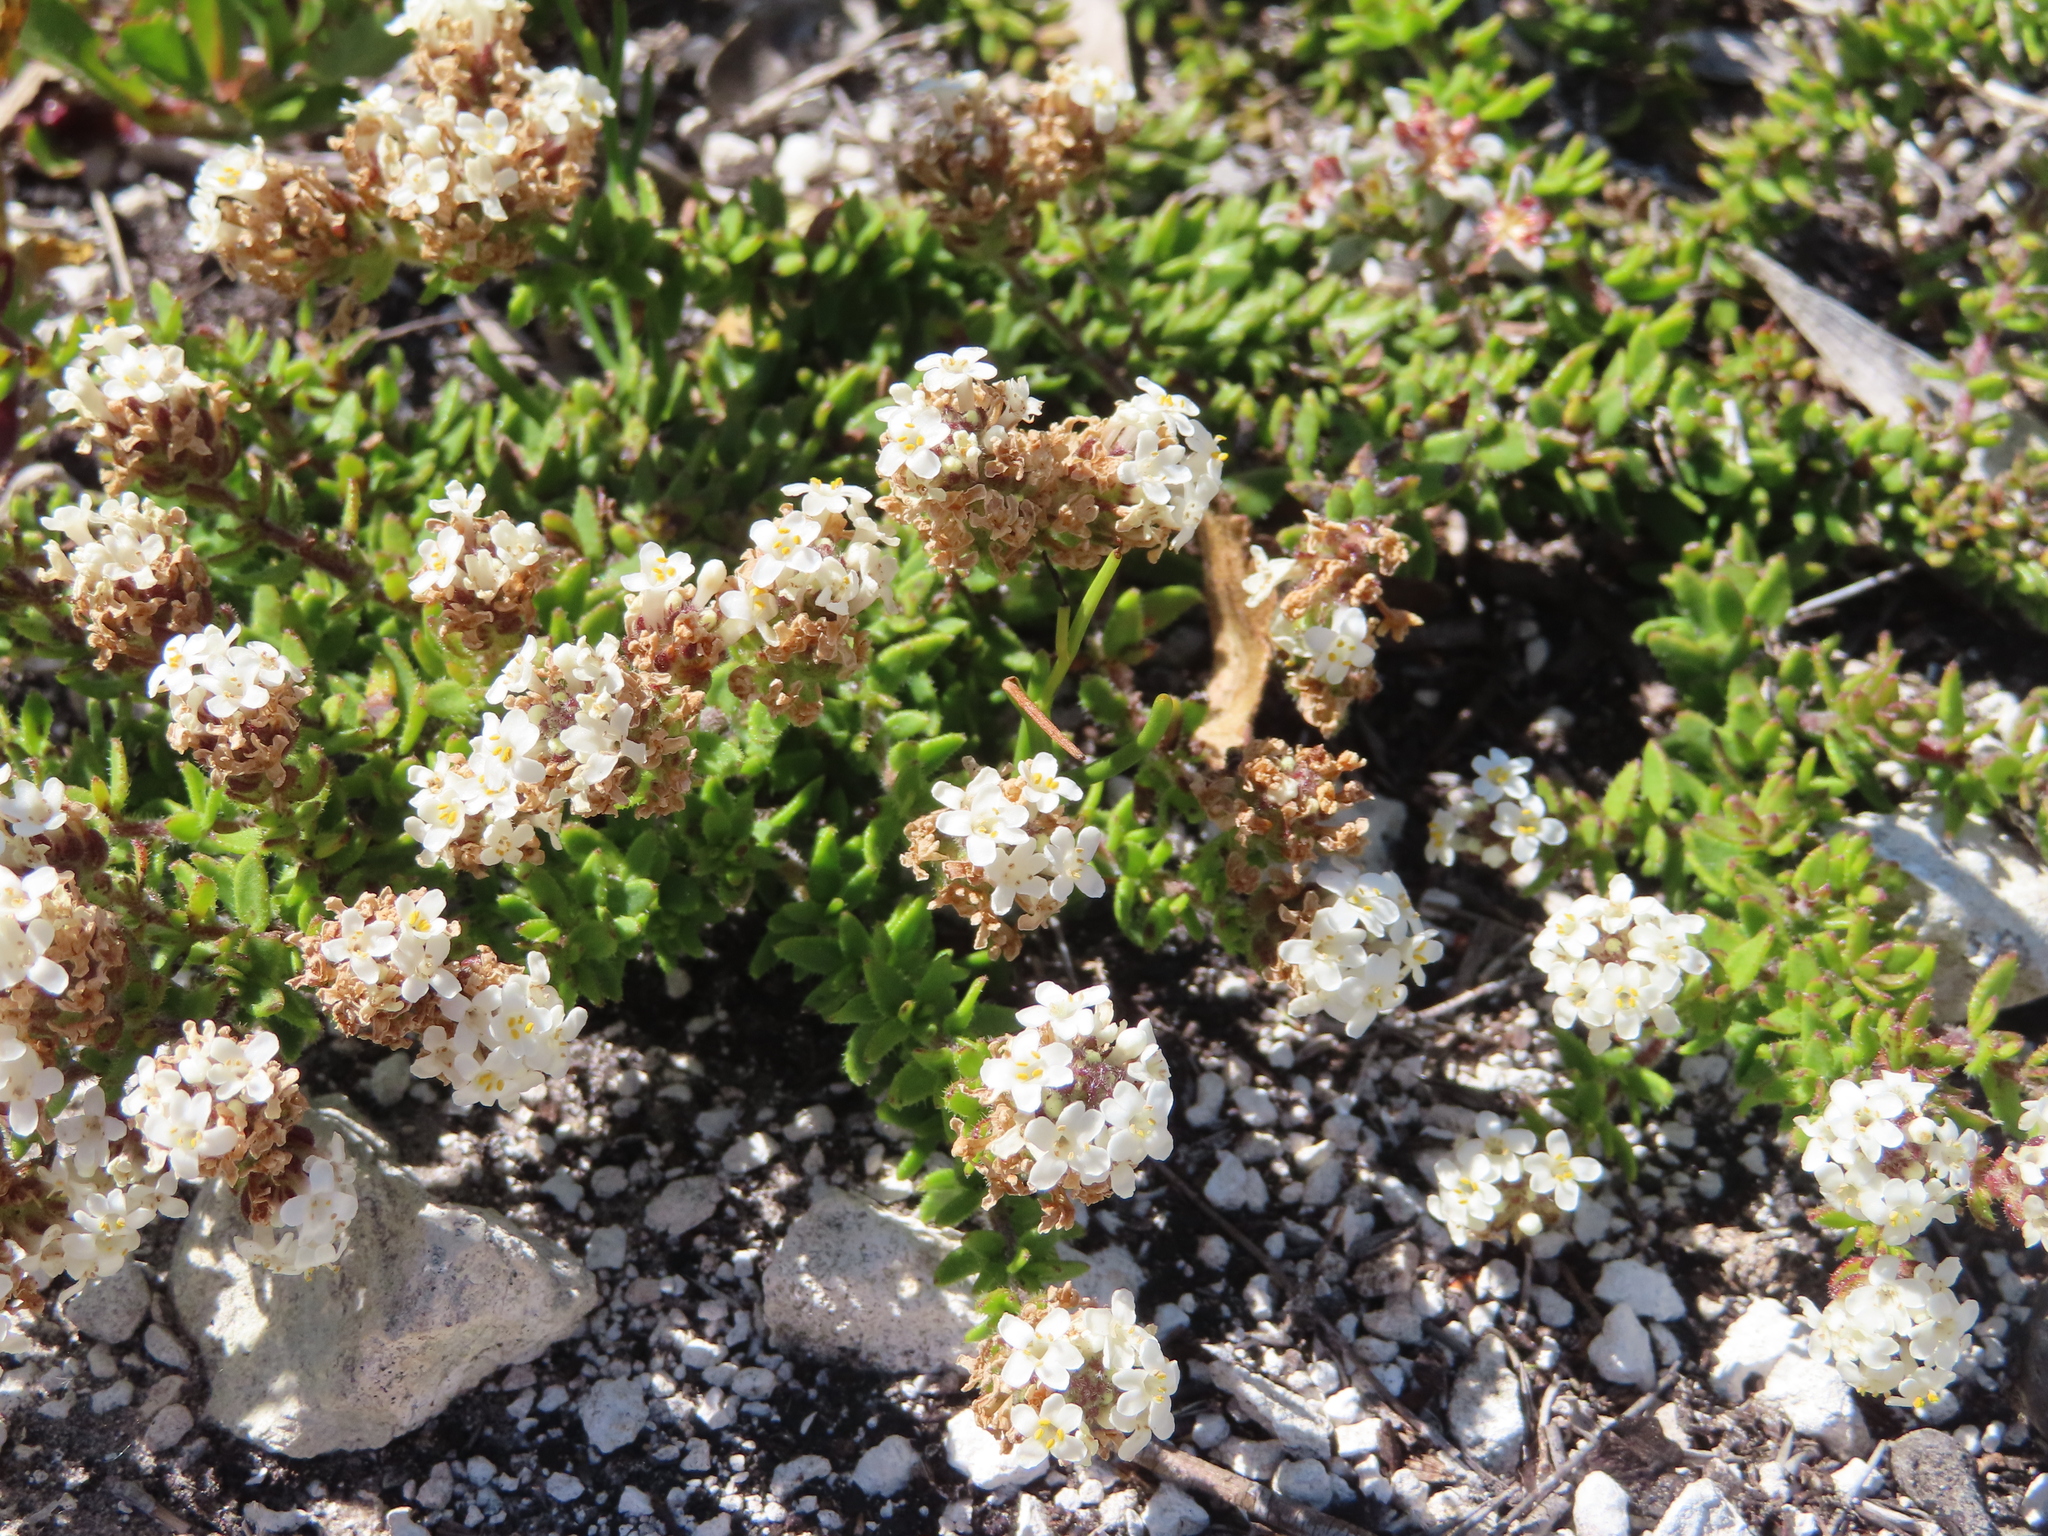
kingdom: Plantae
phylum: Tracheophyta
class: Magnoliopsida
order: Lamiales
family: Scrophulariaceae
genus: Selago
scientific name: Selago setulosa
